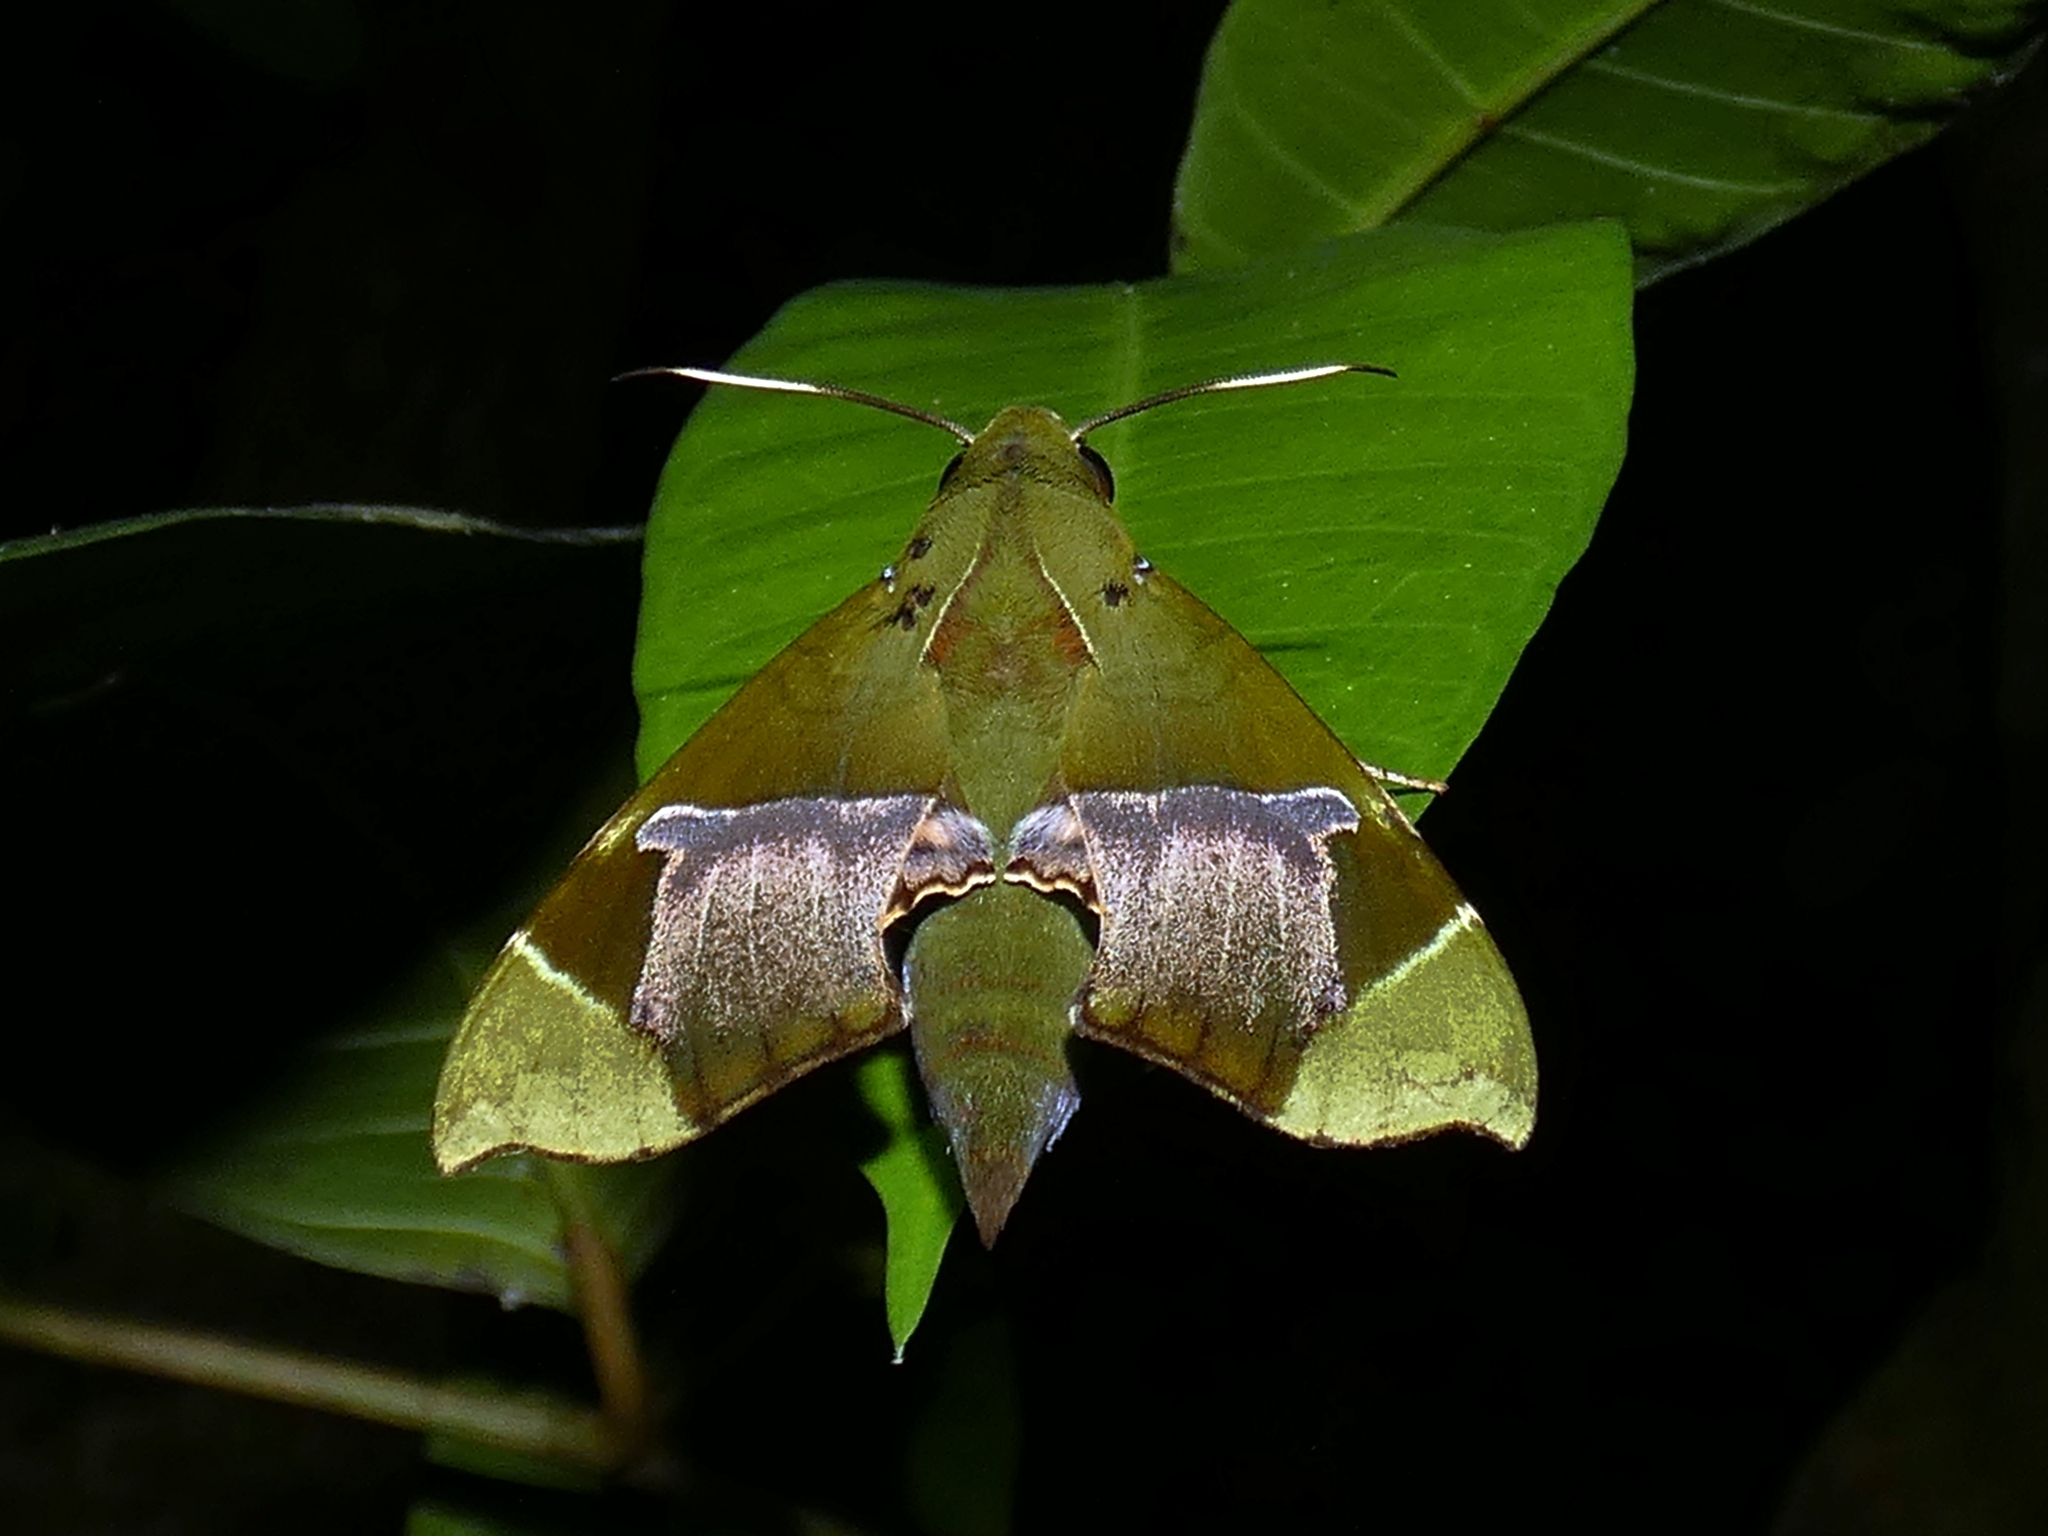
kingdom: Animalia
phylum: Arthropoda
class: Insecta
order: Lepidoptera
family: Sphingidae
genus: Angonyx
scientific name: Angonyx papuana
